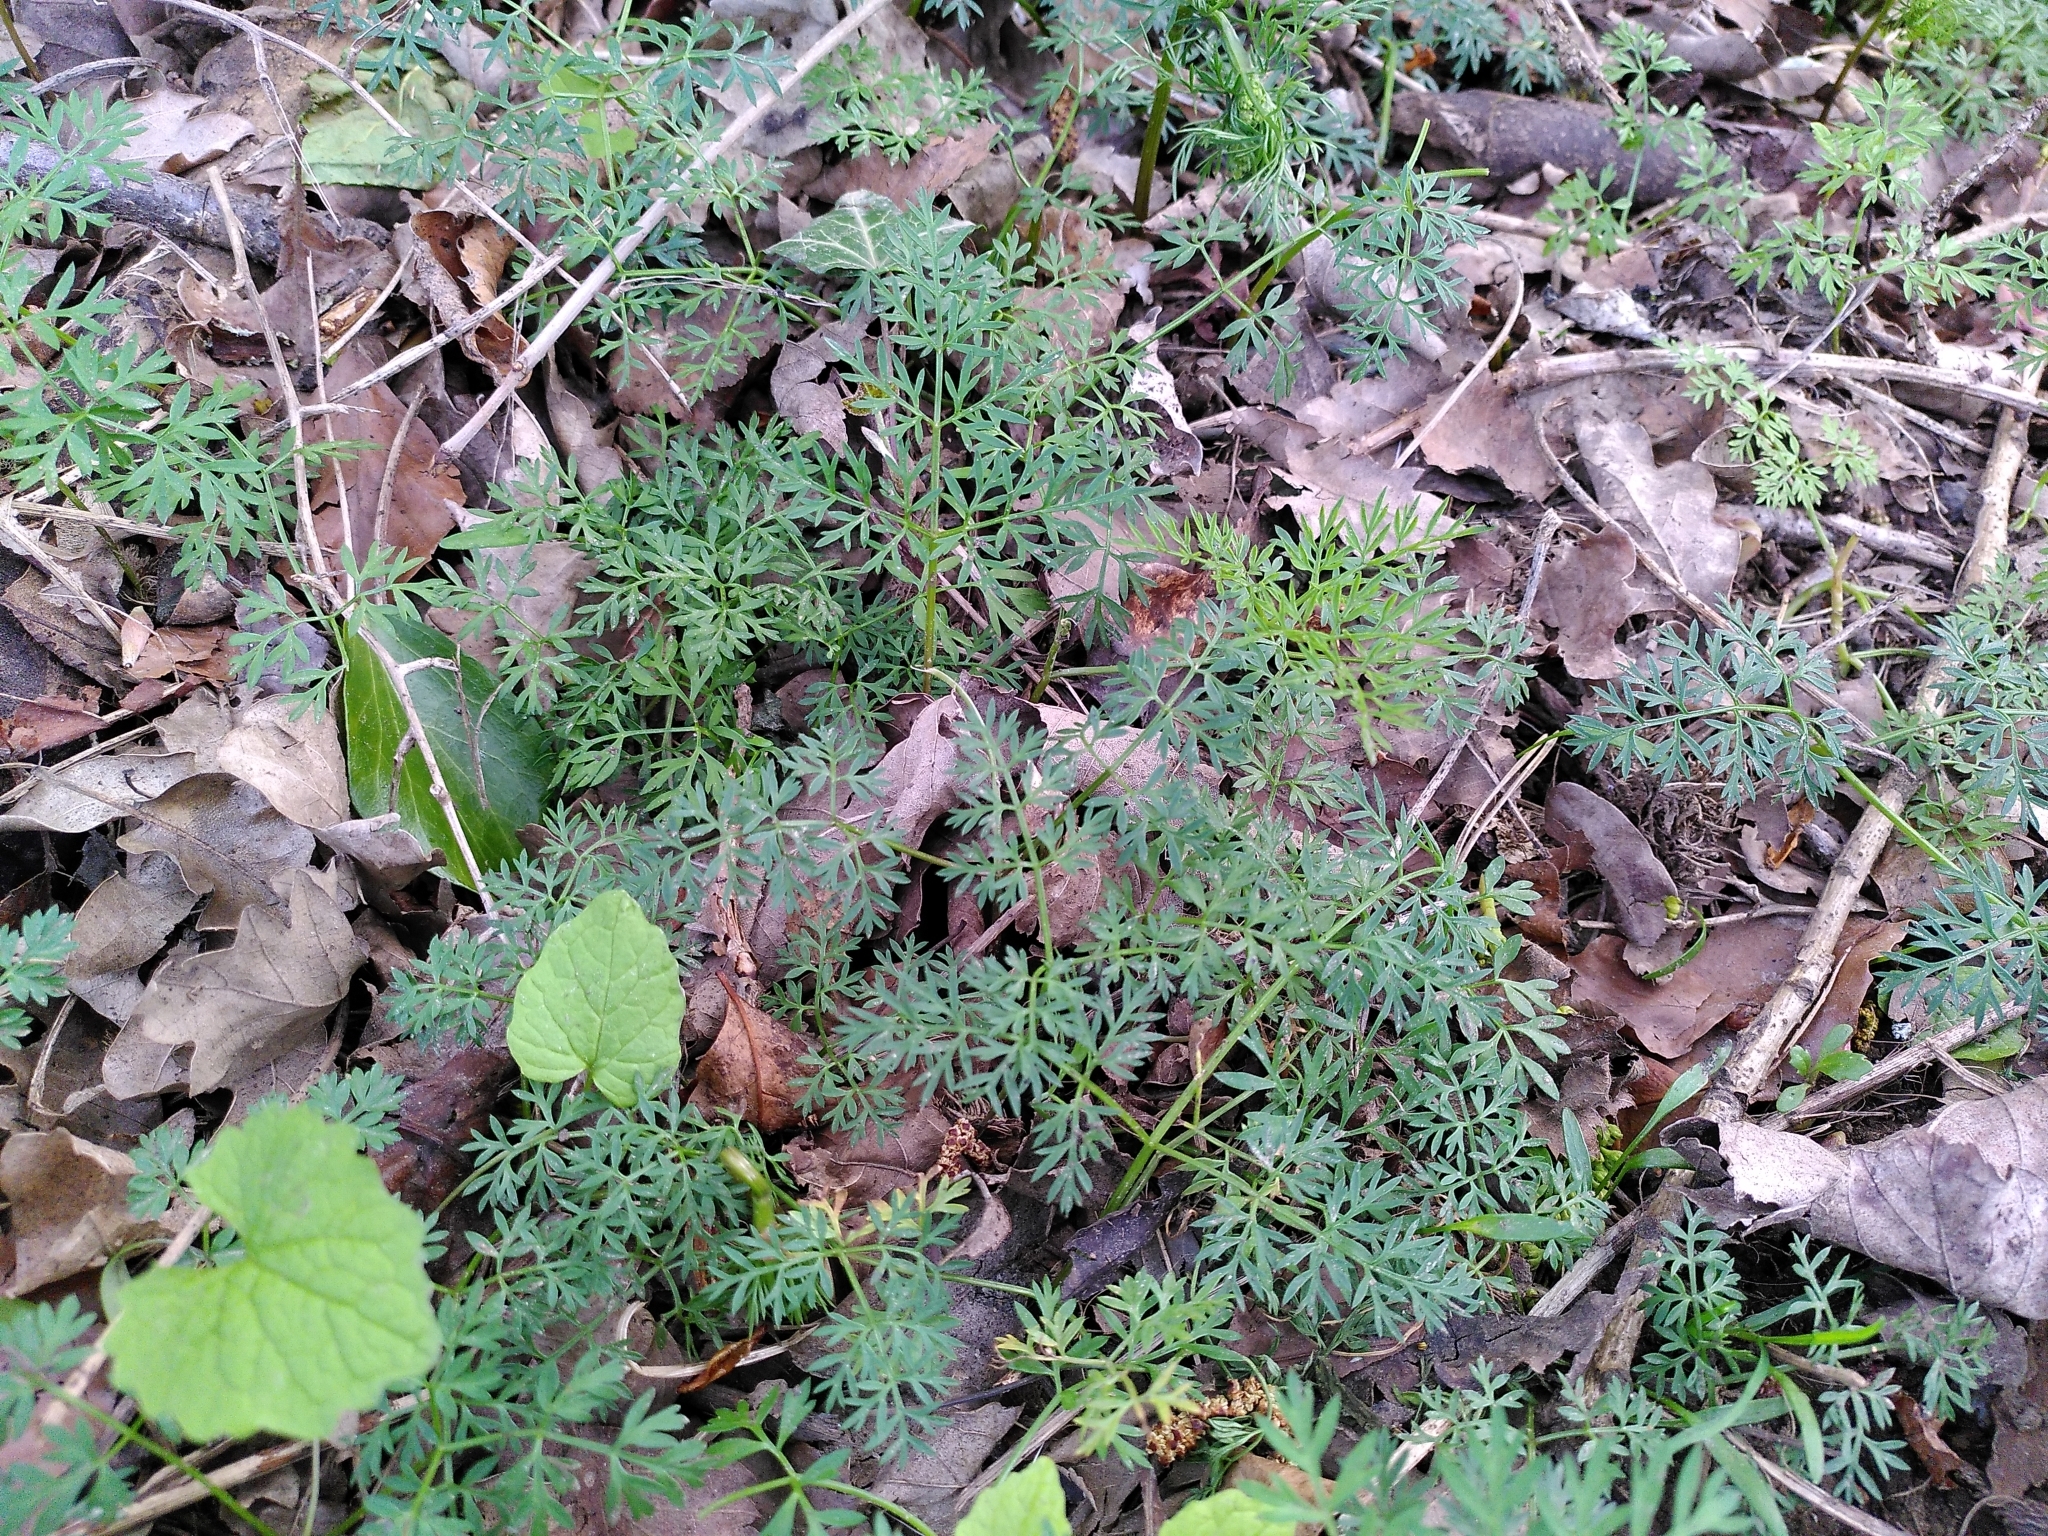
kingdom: Plantae
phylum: Tracheophyta
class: Magnoliopsida
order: Apiales
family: Apiaceae
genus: Conopodium
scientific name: Conopodium majus
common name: Pignut
